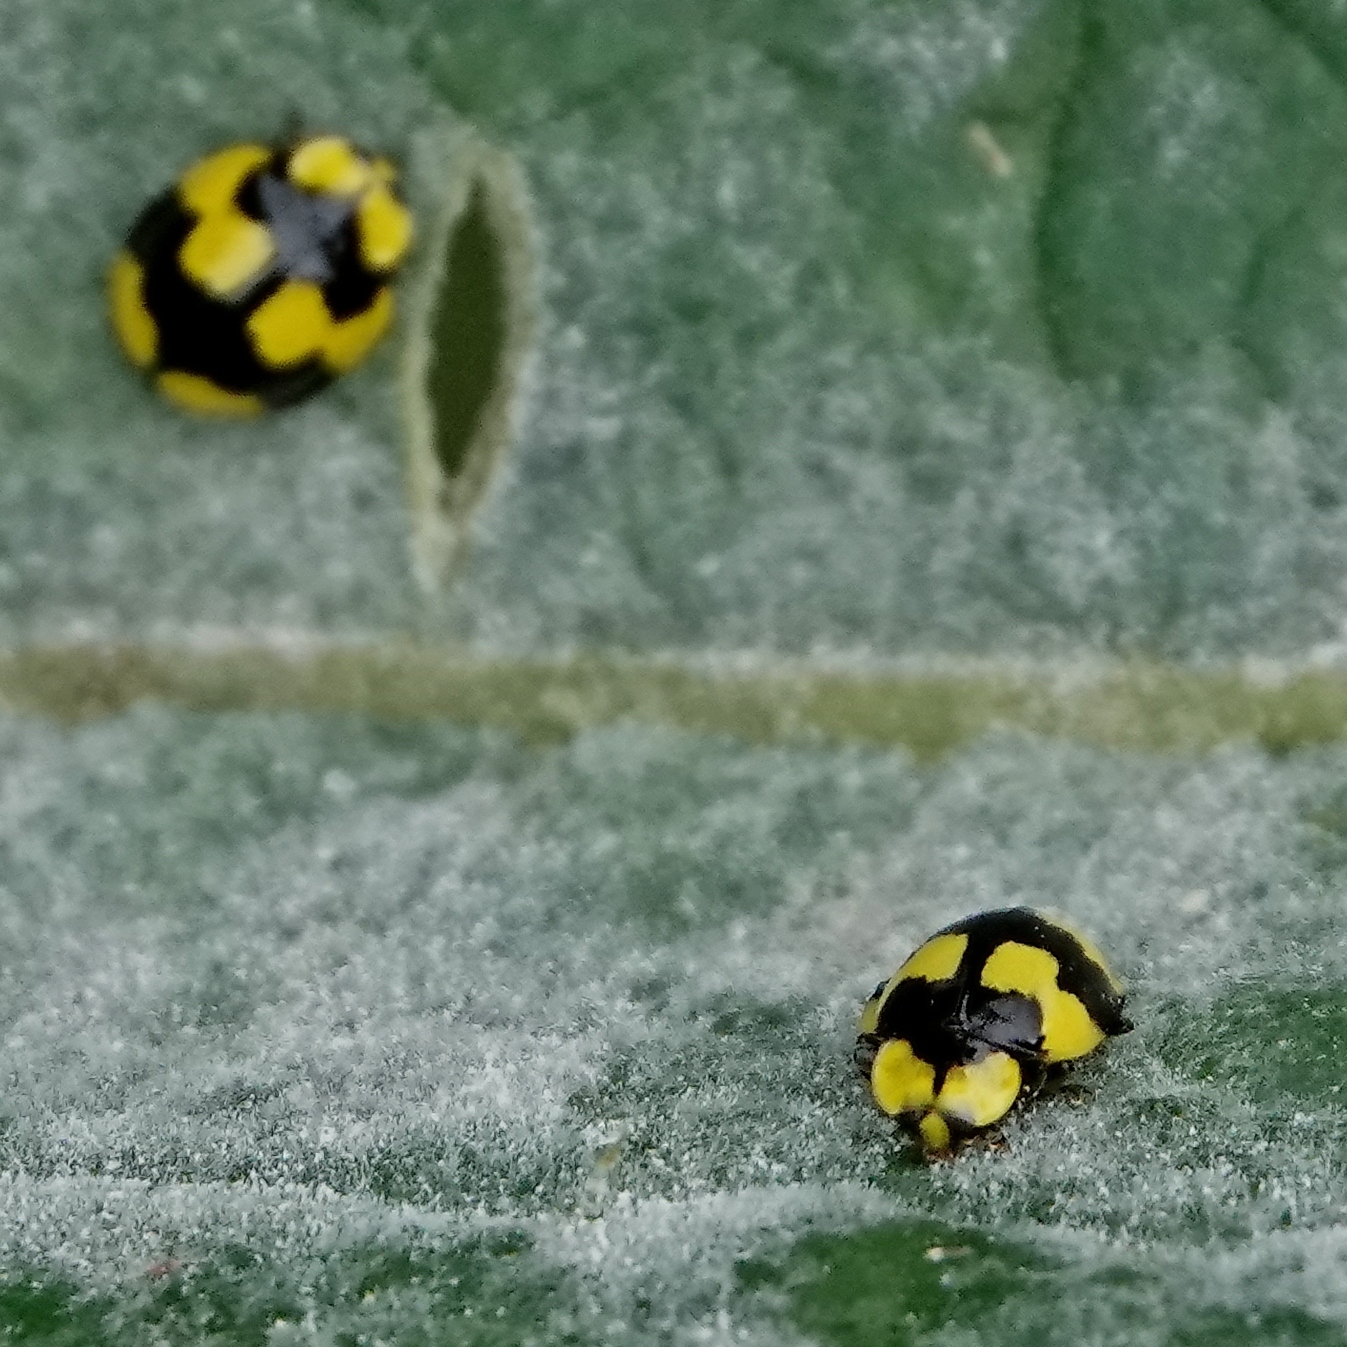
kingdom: Animalia
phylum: Arthropoda
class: Insecta
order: Coleoptera
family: Coccinellidae
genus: Illeis
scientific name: Illeis galbula
